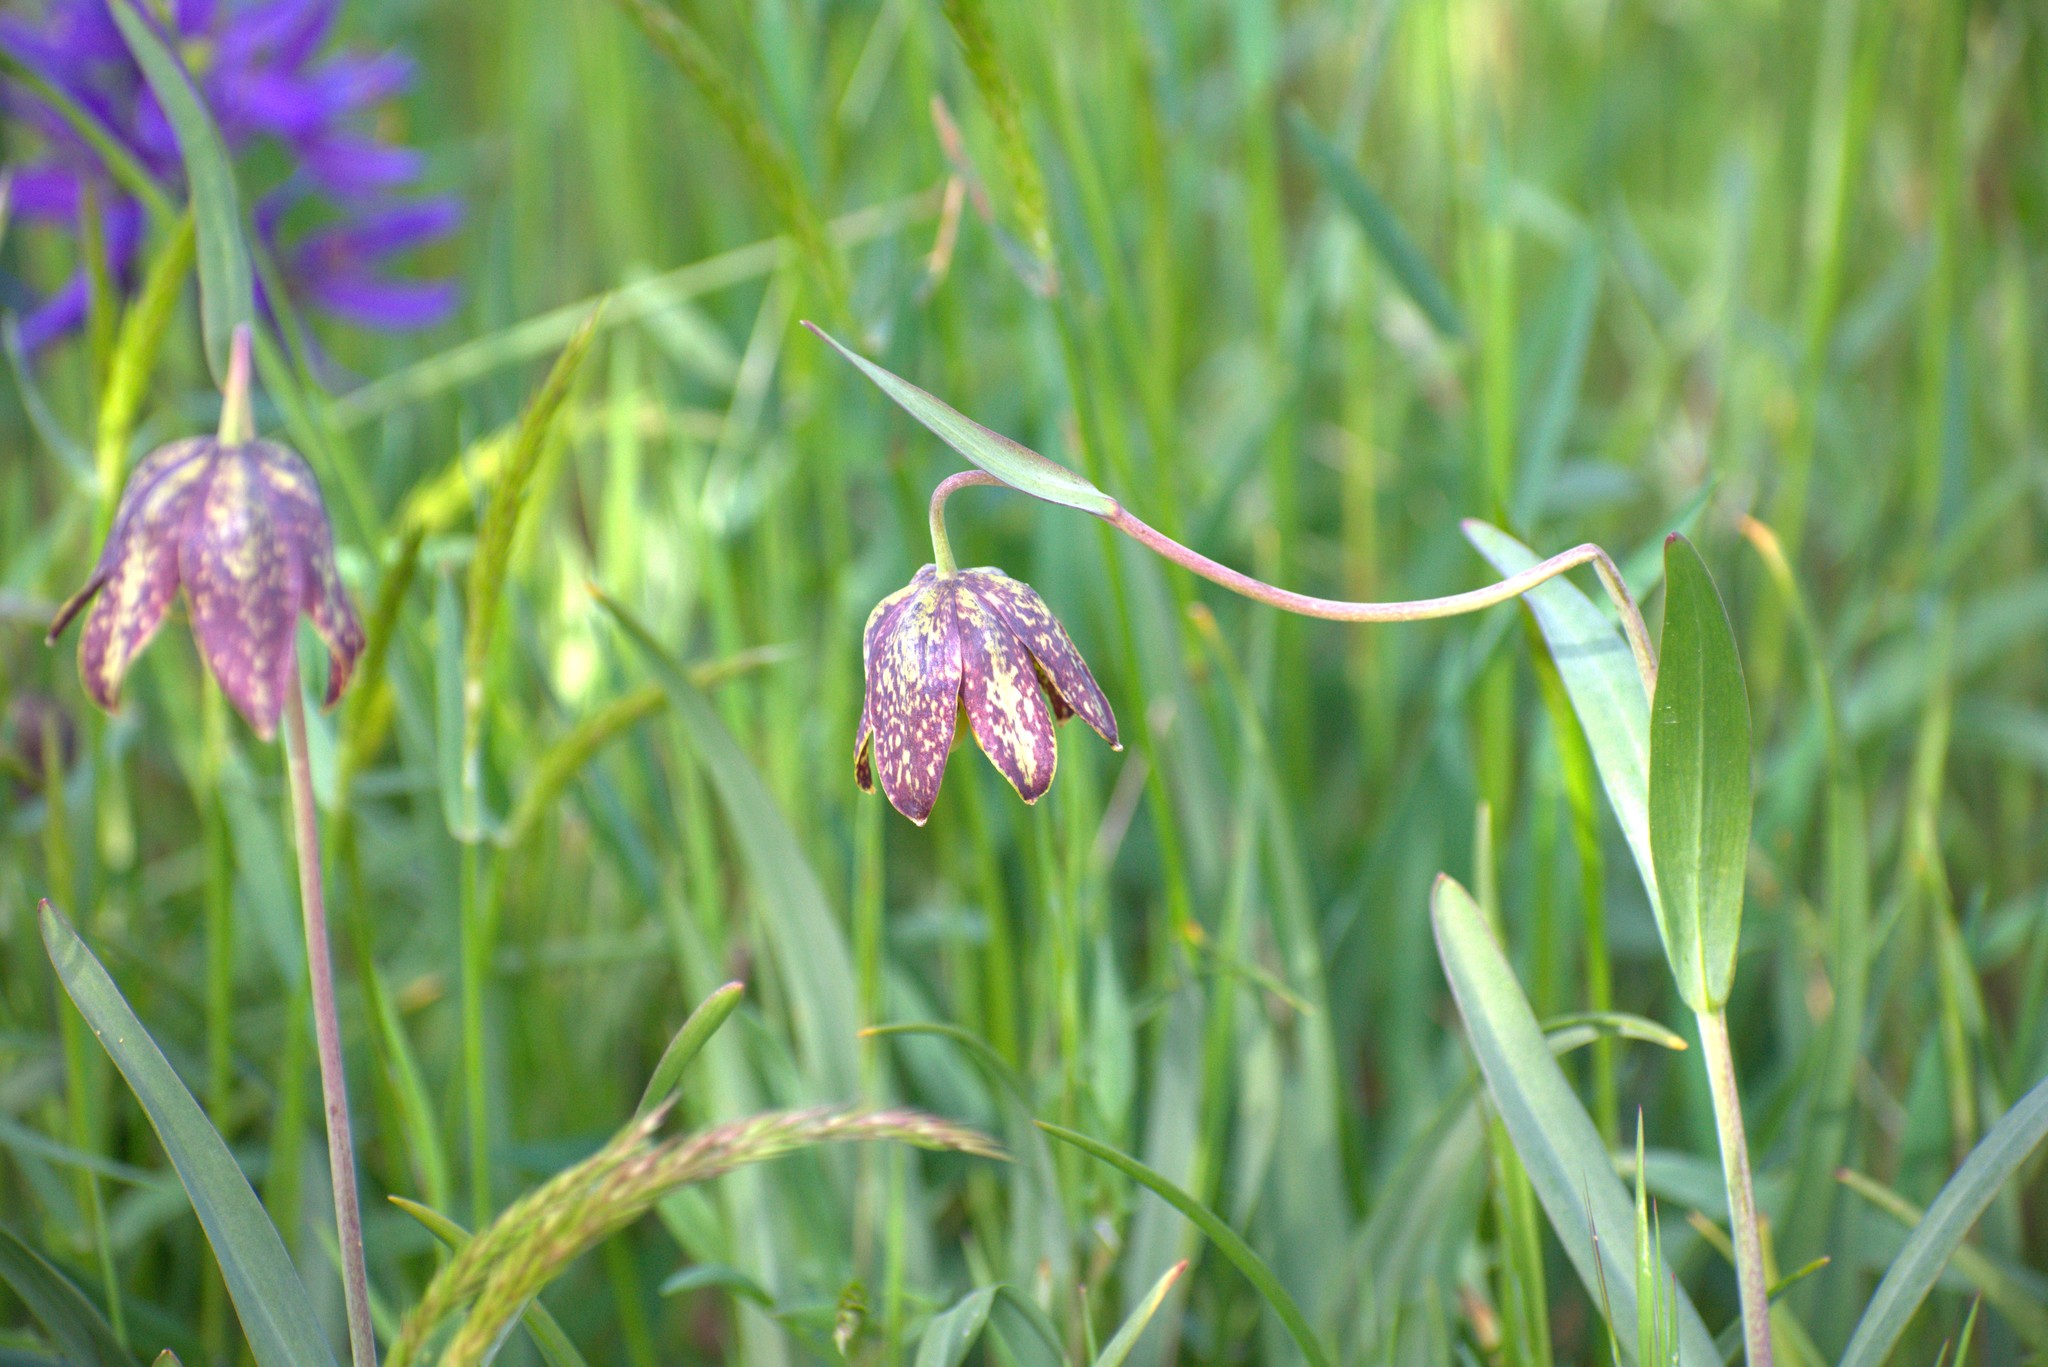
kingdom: Plantae
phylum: Tracheophyta
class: Liliopsida
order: Liliales
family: Liliaceae
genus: Fritillaria
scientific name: Fritillaria affinis
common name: Ojai fritillary
